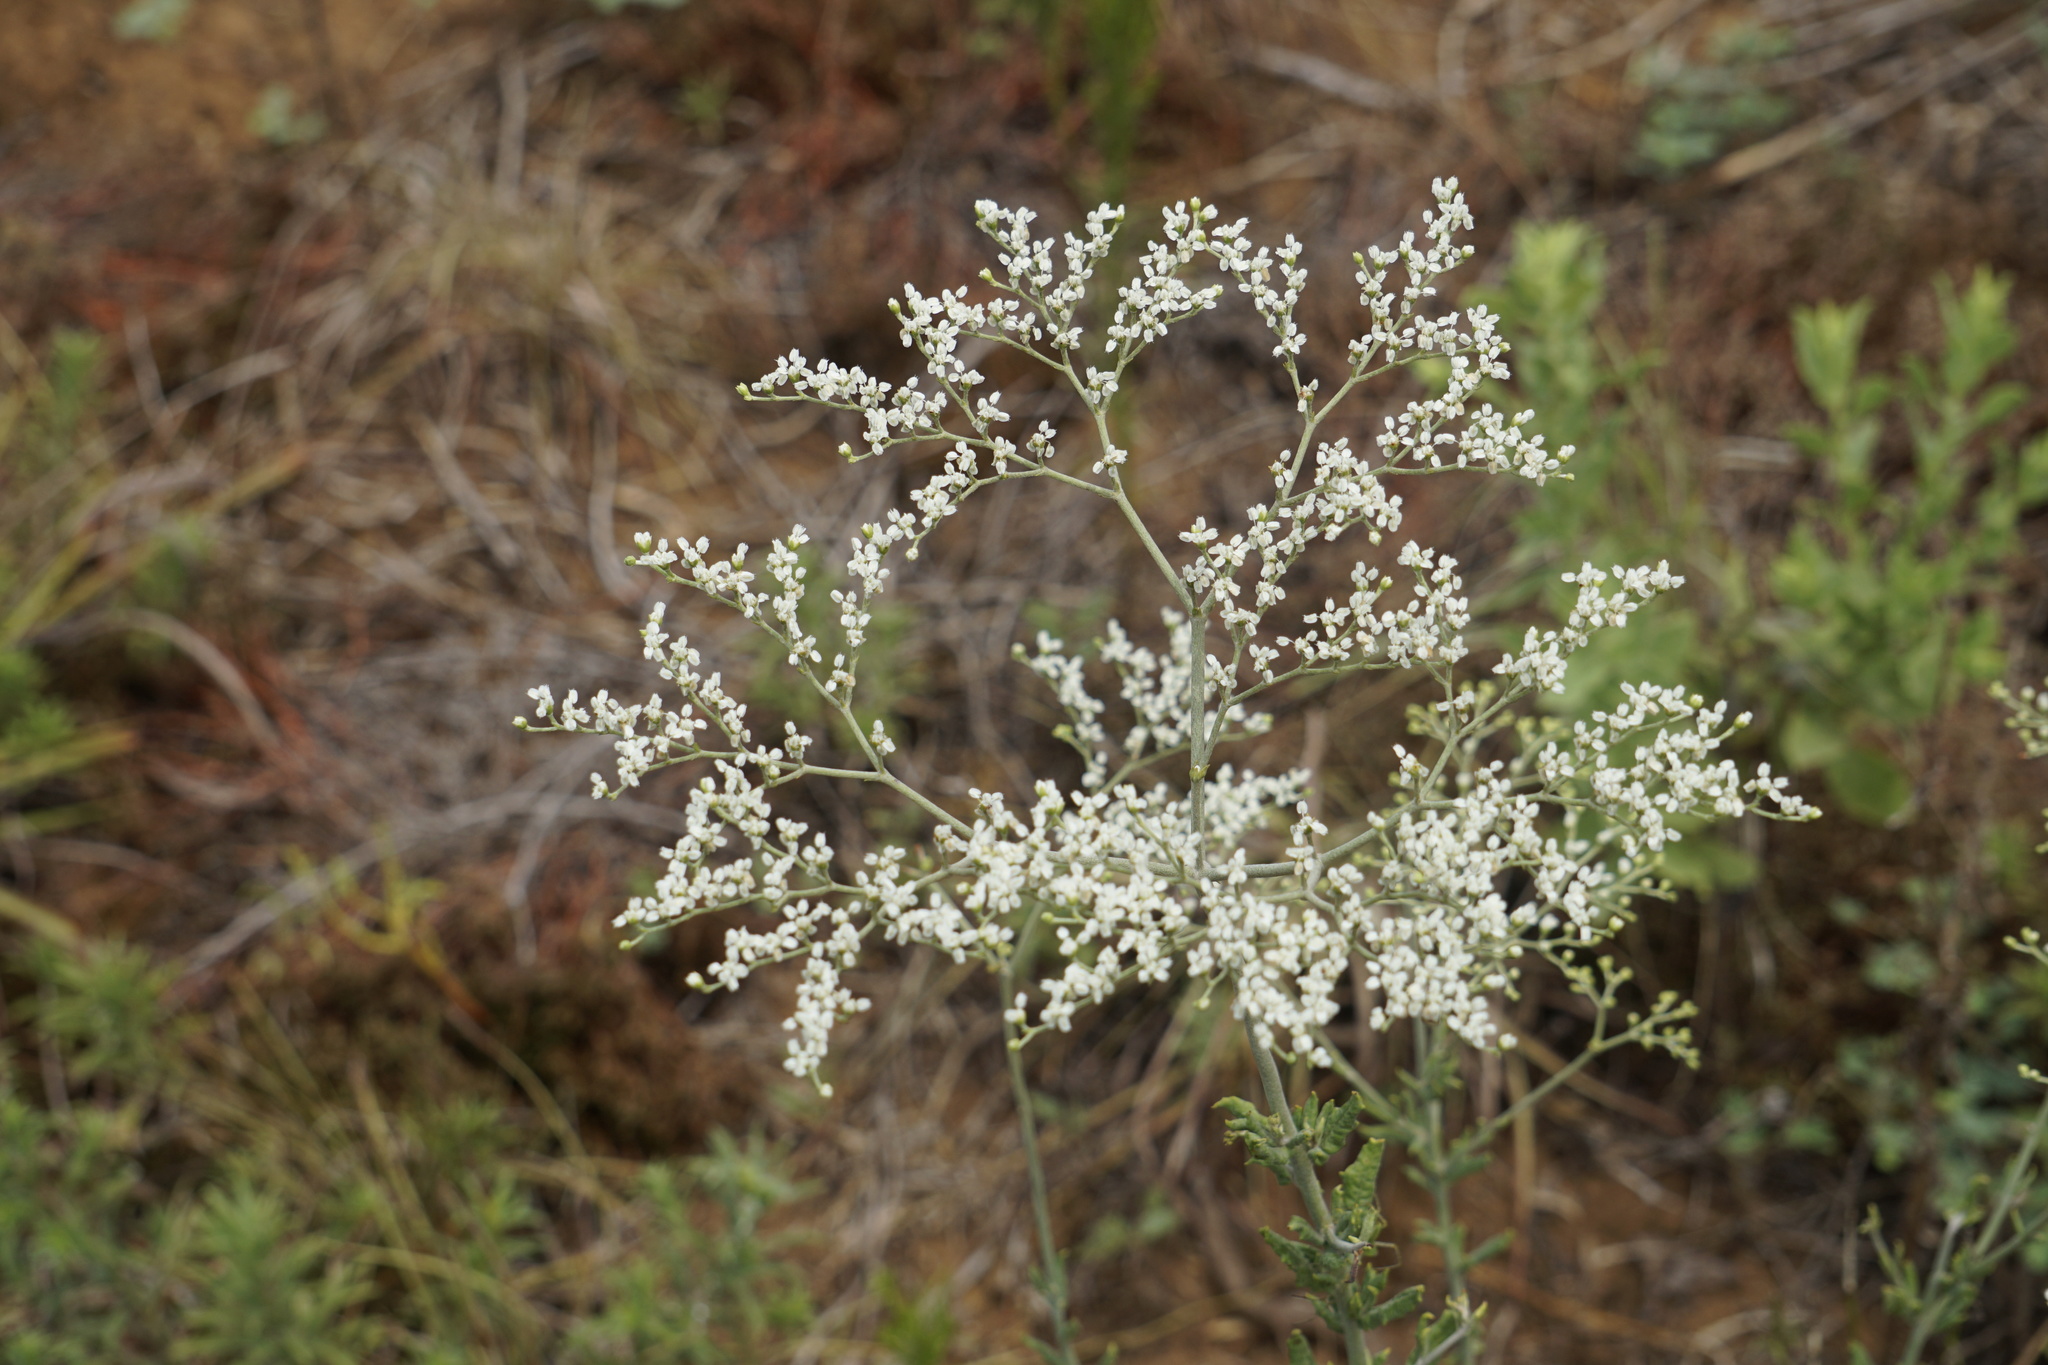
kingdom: Plantae
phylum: Tracheophyta
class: Magnoliopsida
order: Caryophyllales
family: Polygonaceae
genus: Eriogonum
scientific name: Eriogonum multiflorum
